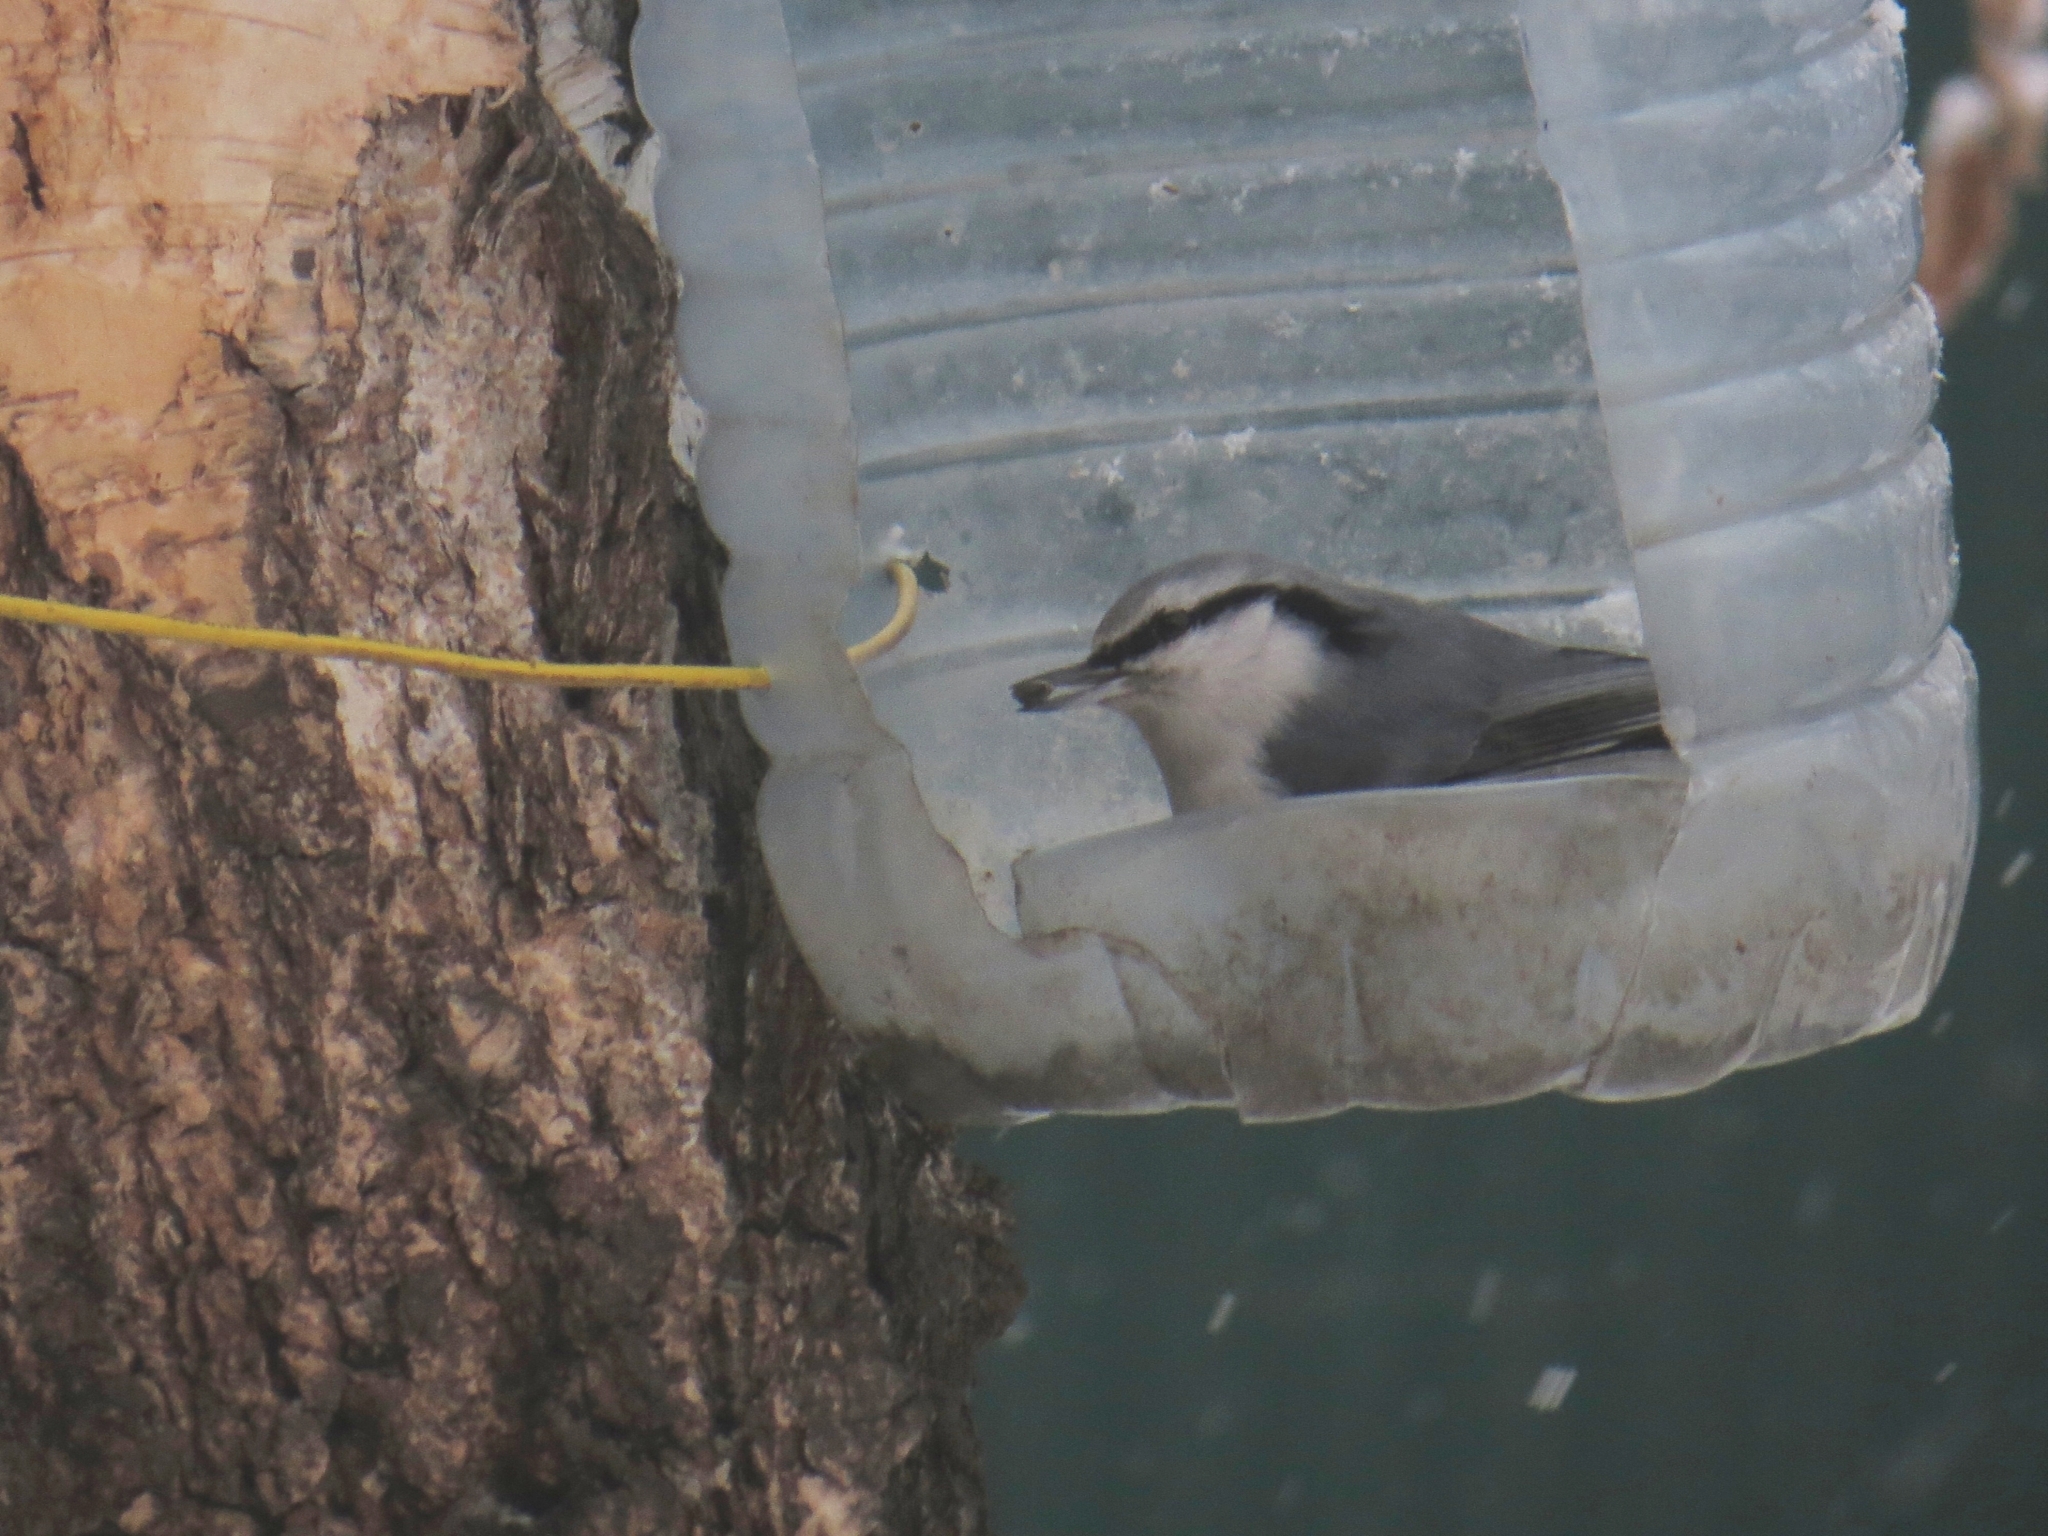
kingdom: Animalia
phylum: Chordata
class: Aves
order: Passeriformes
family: Sittidae
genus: Sitta
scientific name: Sitta europaea
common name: Eurasian nuthatch
